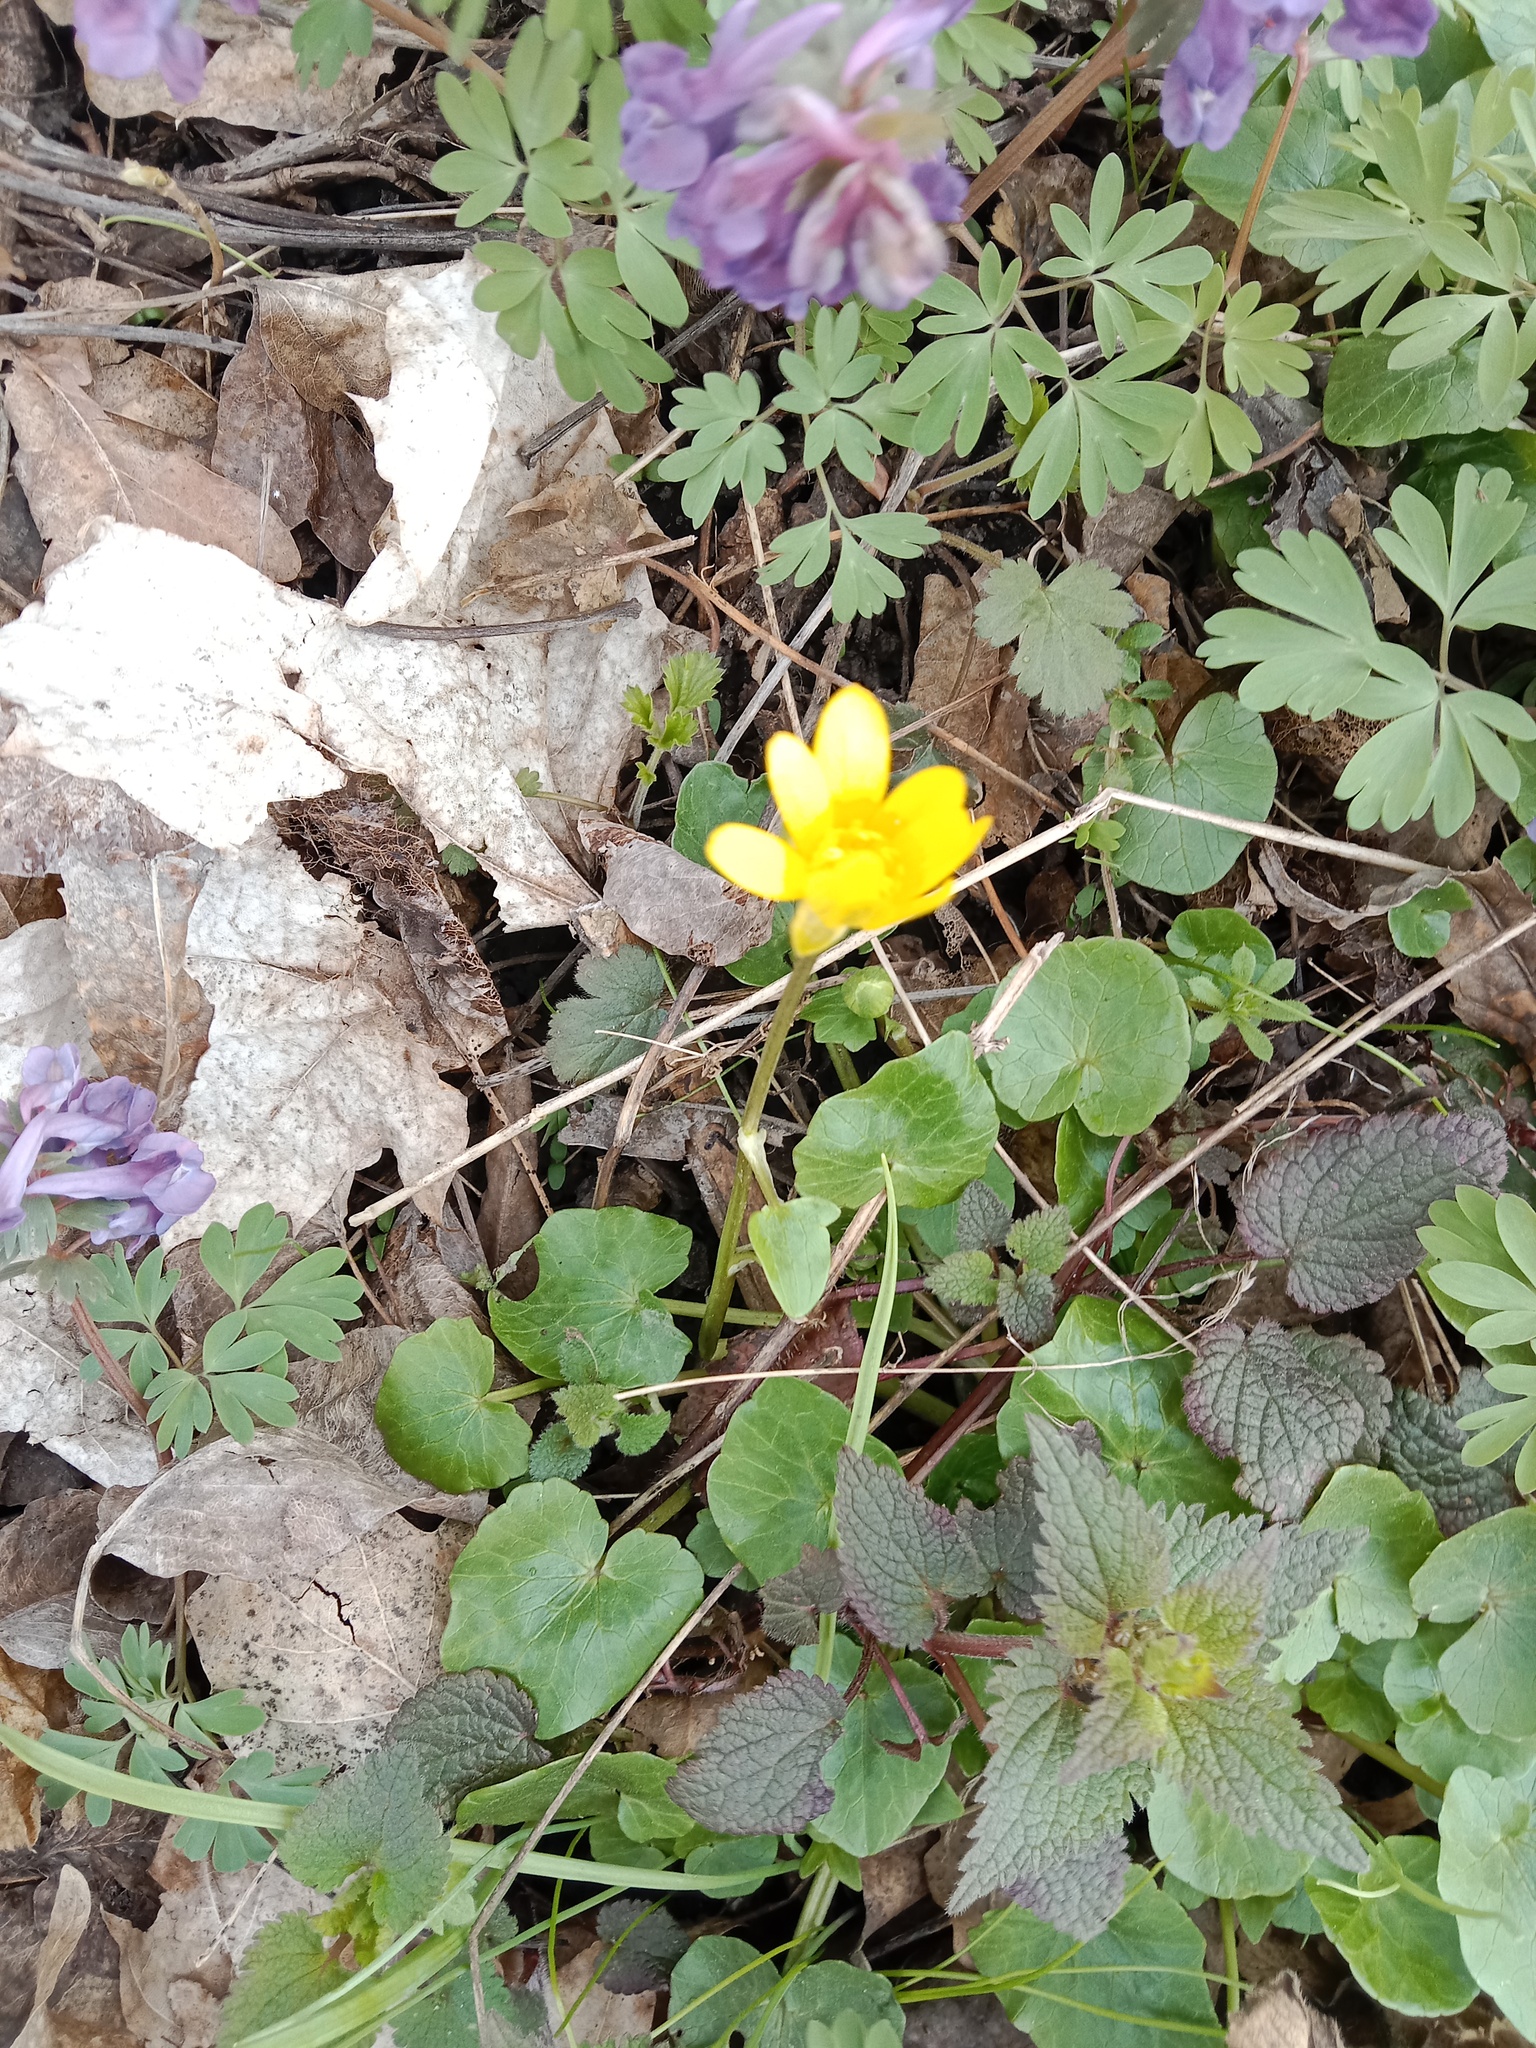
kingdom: Plantae
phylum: Tracheophyta
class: Magnoliopsida
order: Ranunculales
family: Ranunculaceae
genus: Ficaria
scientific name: Ficaria verna
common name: Lesser celandine
